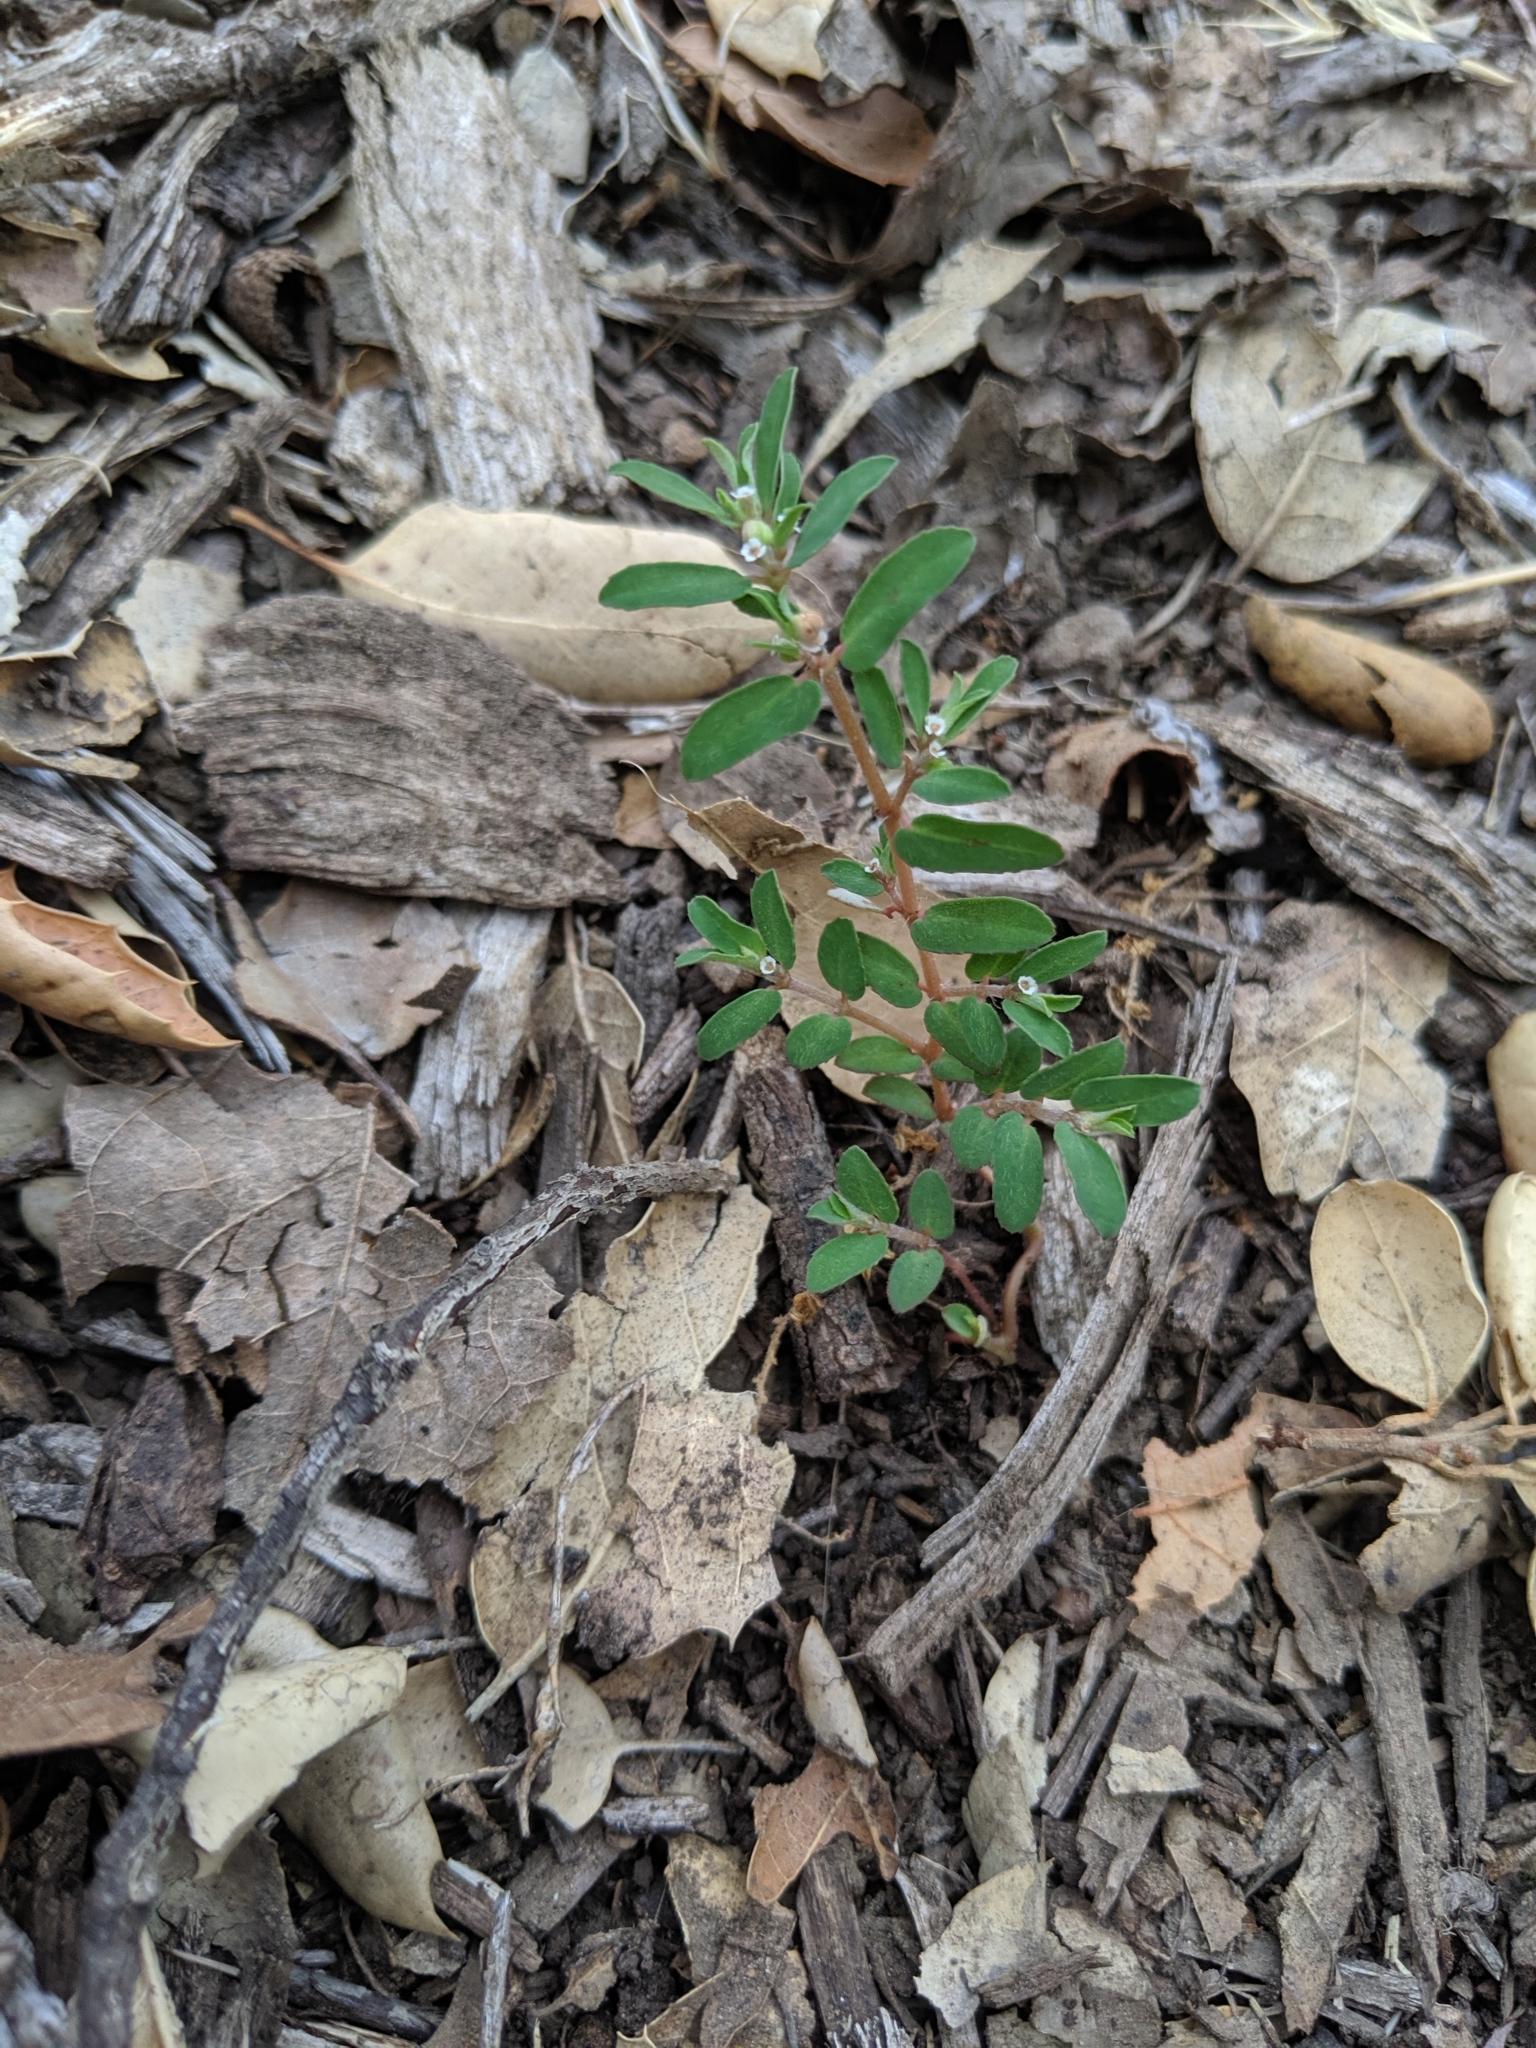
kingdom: Plantae
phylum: Tracheophyta
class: Magnoliopsida
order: Malpighiales
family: Euphorbiaceae
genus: Euphorbia
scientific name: Euphorbia maculata
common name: Spotted spurge
